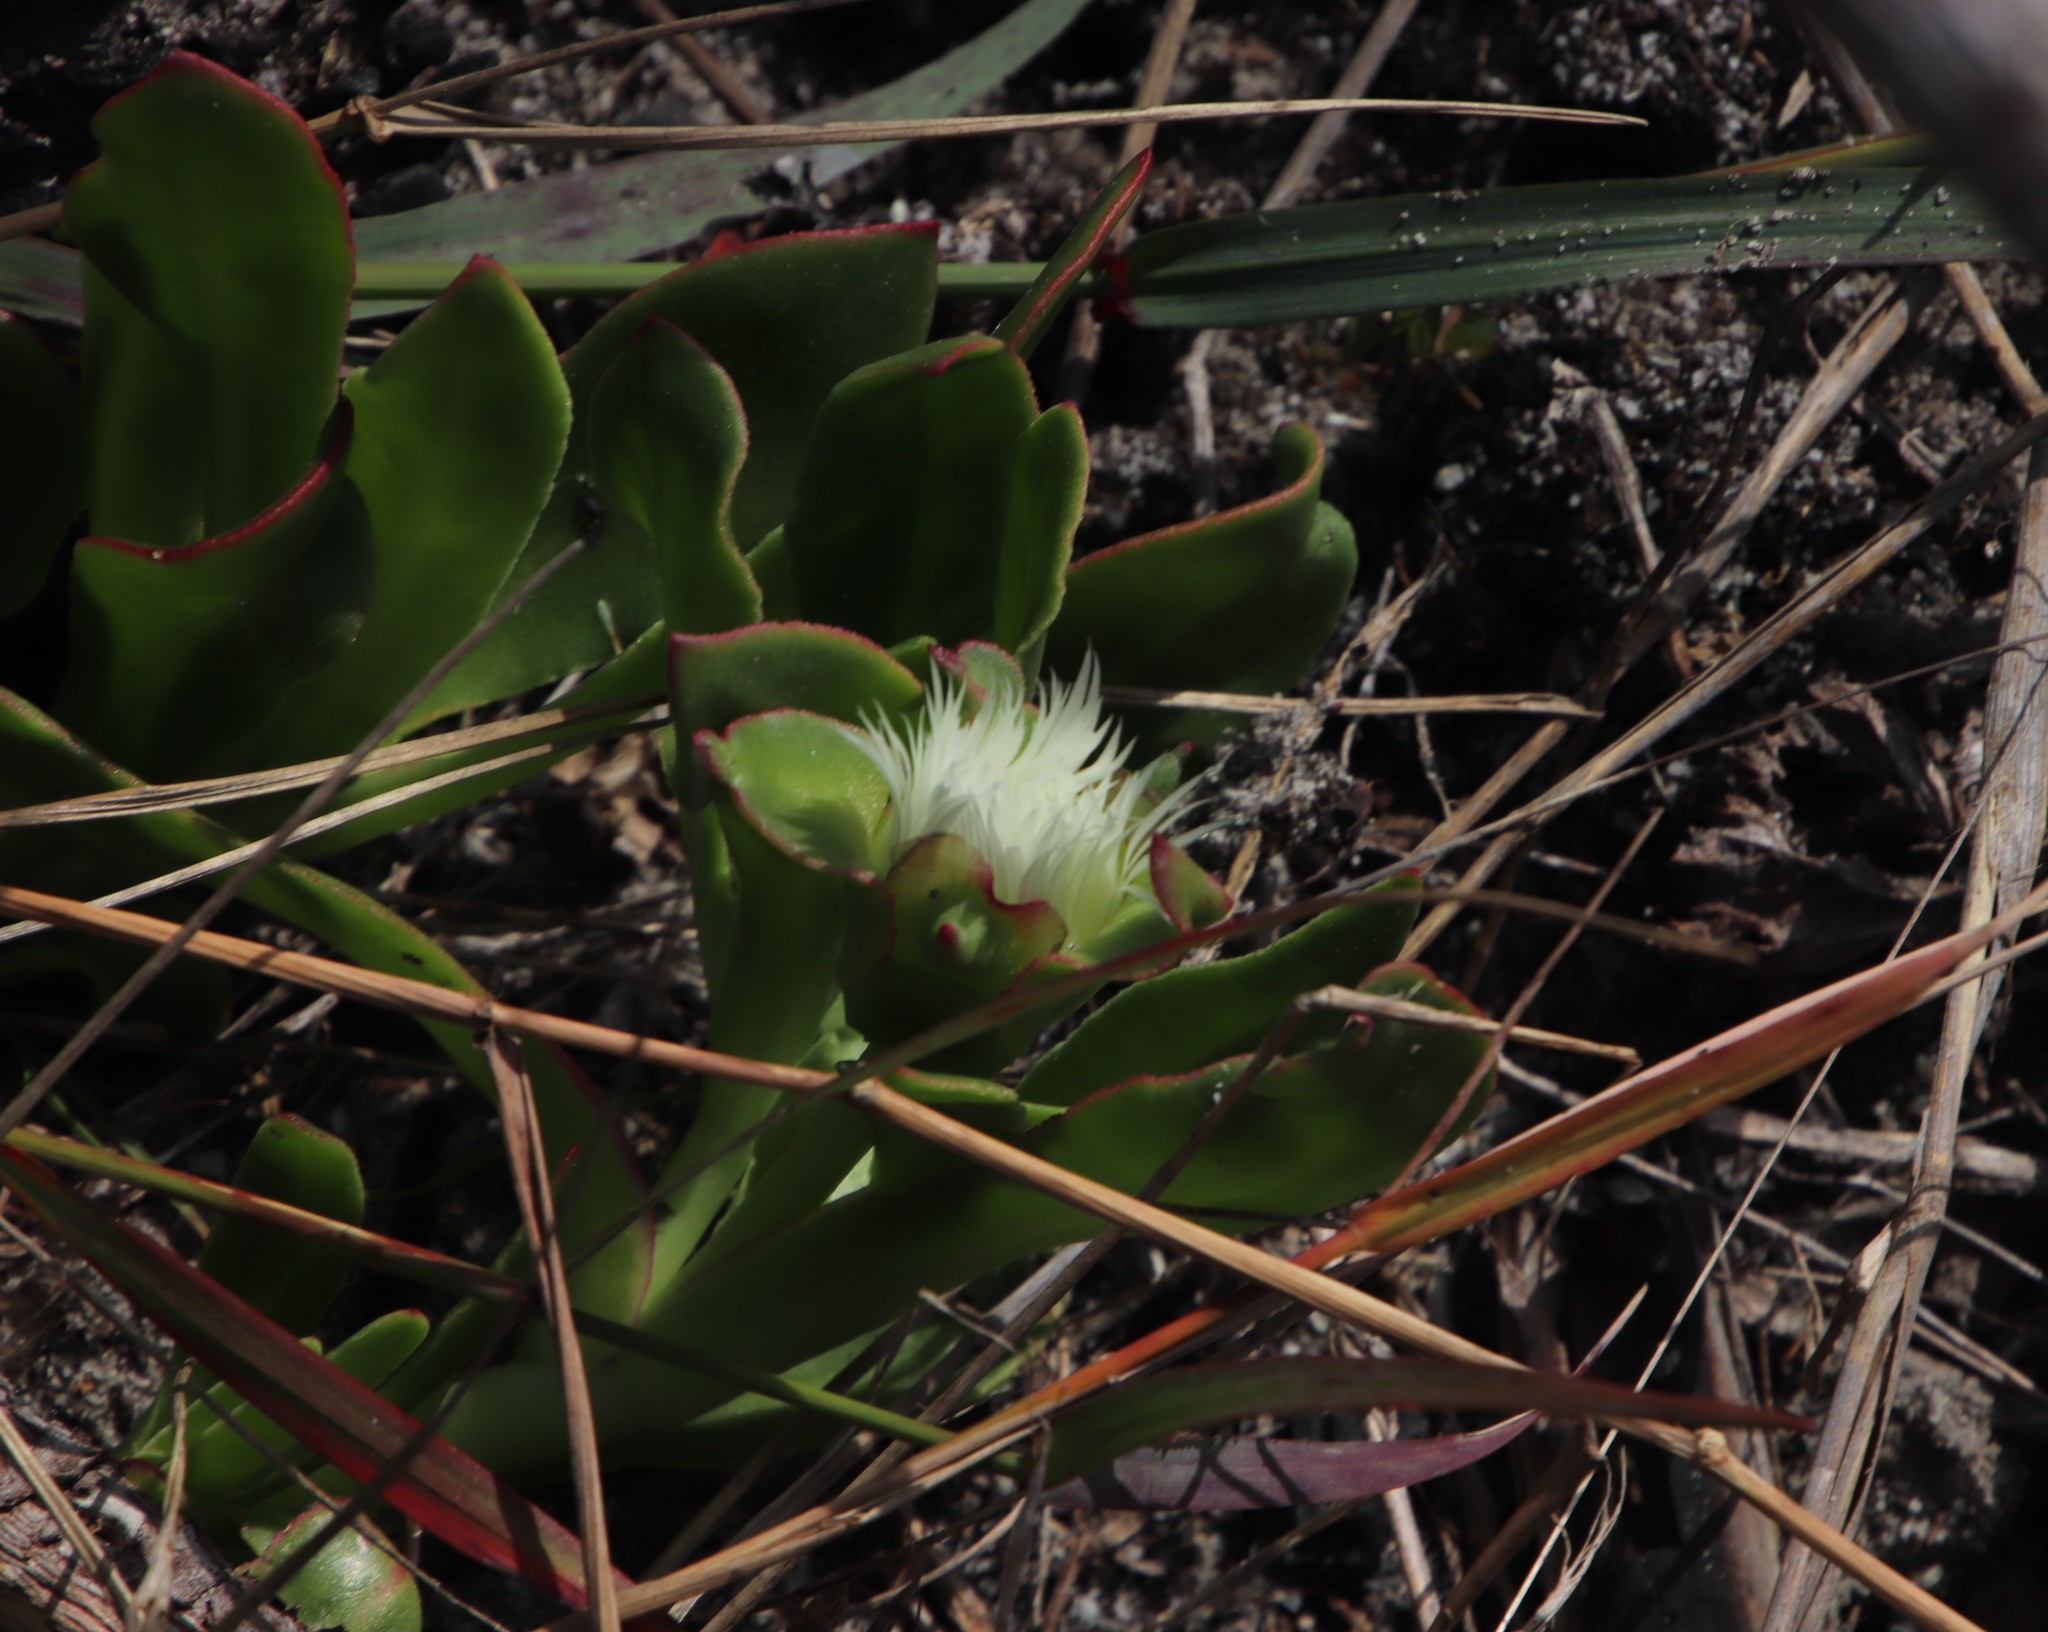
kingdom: Plantae
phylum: Tracheophyta
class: Magnoliopsida
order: Caryophyllales
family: Aizoaceae
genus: Skiatophytum
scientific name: Skiatophytum tripolium
